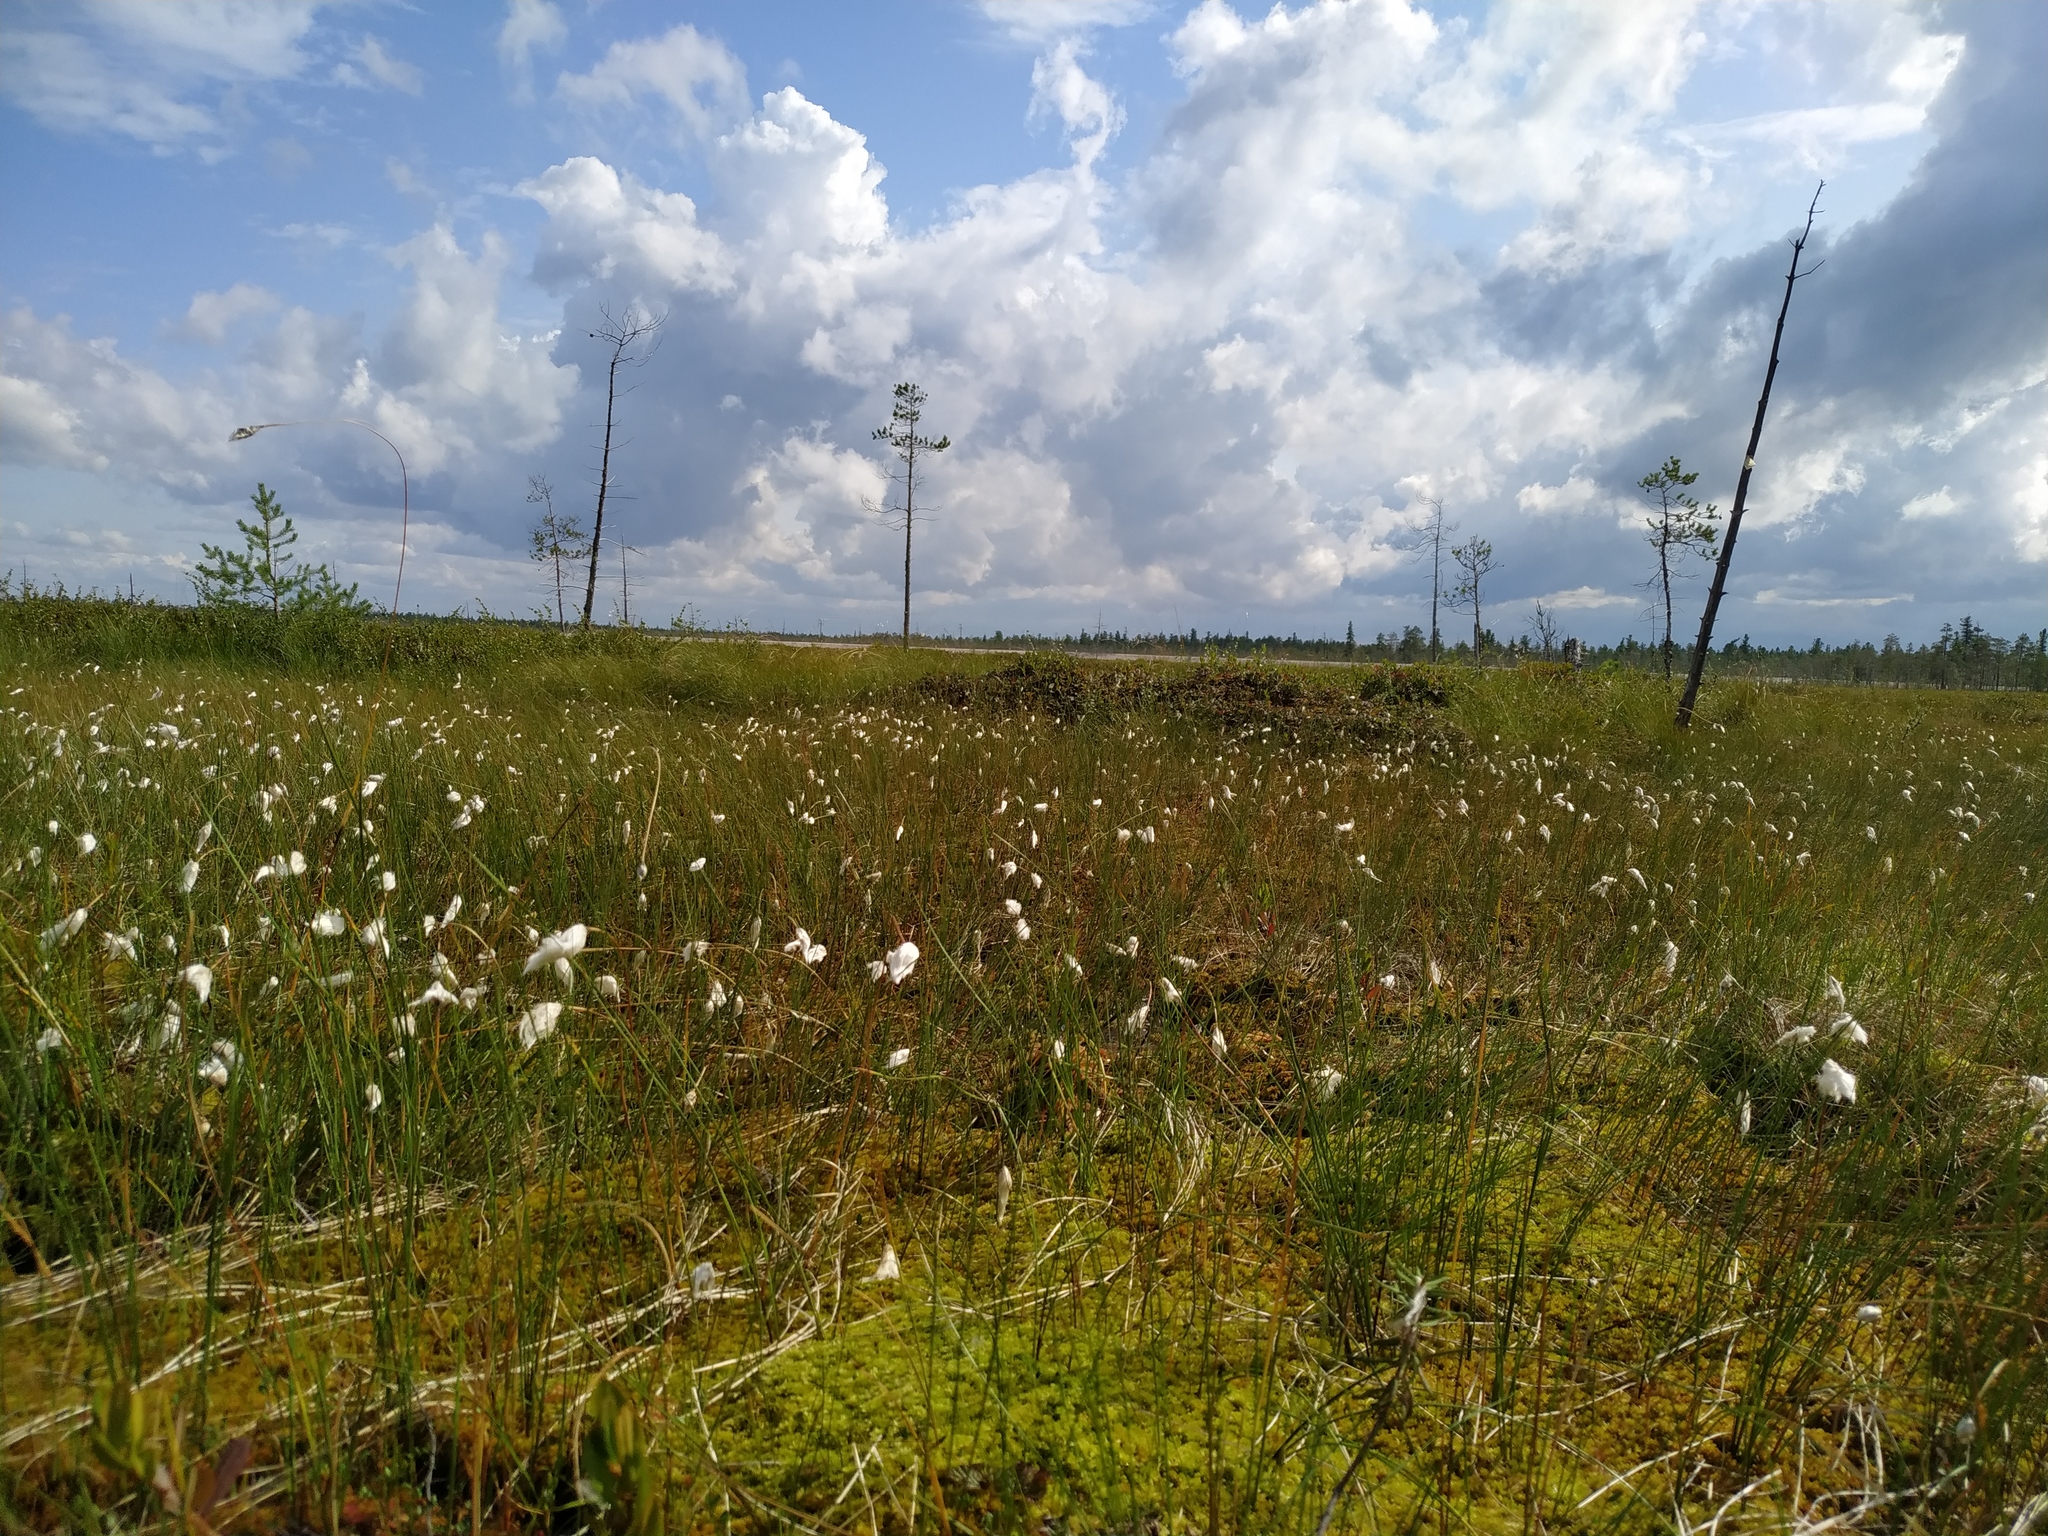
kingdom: Plantae
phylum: Tracheophyta
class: Liliopsida
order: Poales
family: Cyperaceae
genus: Eriophorum
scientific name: Eriophorum vaginatum
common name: Hare's-tail cottongrass
